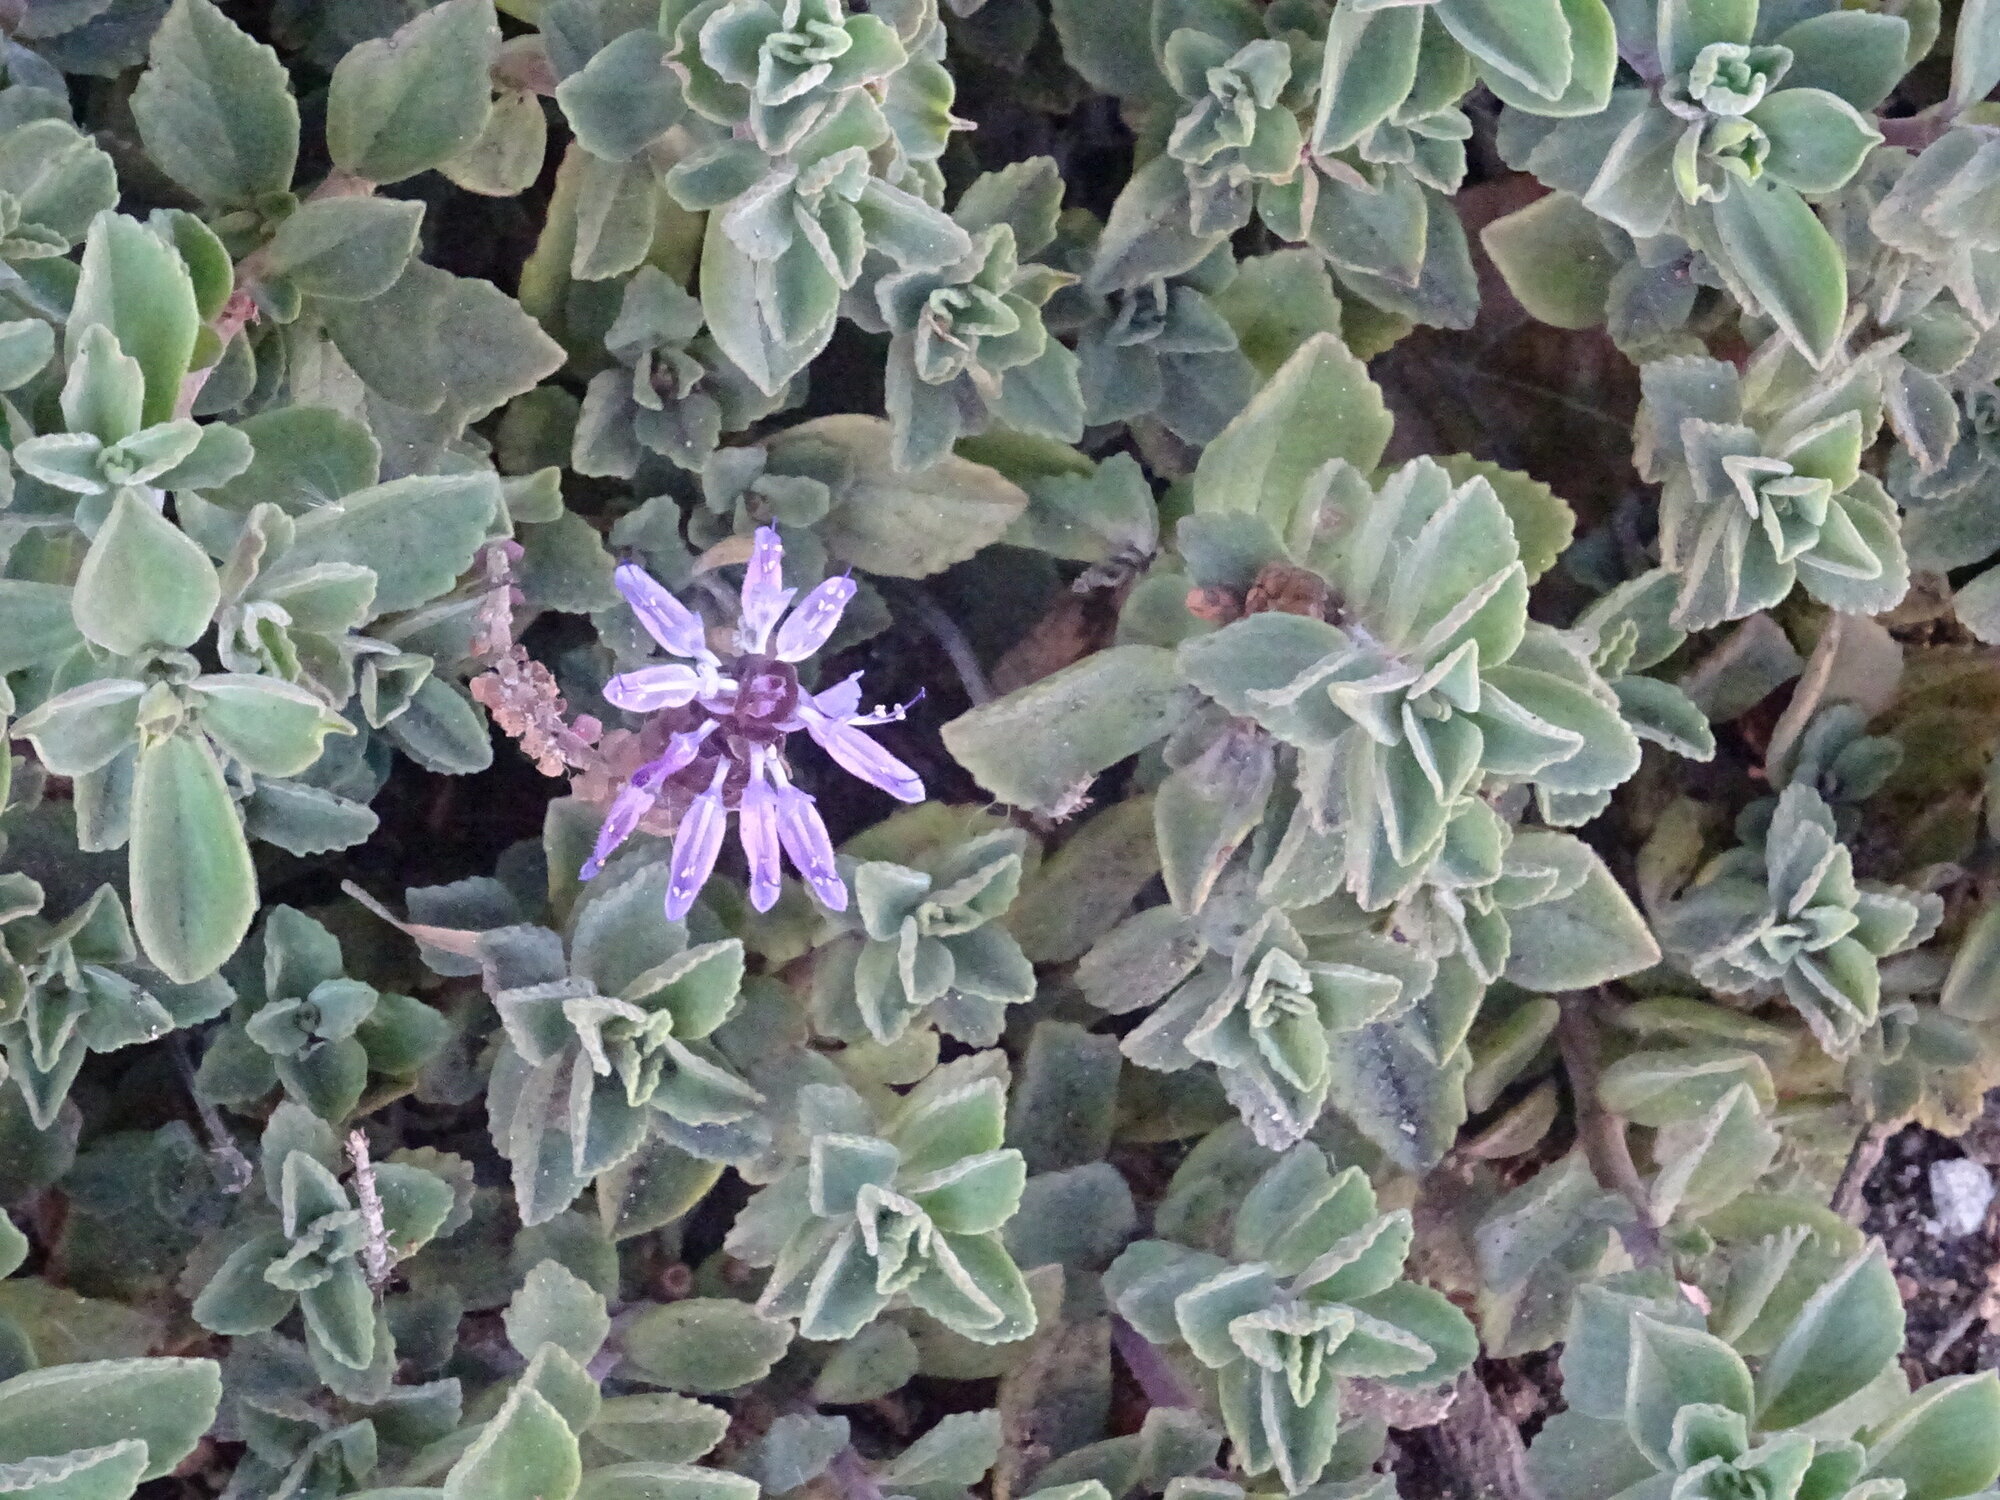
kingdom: Plantae
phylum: Tracheophyta
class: Magnoliopsida
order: Lamiales
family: Lamiaceae
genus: Coleus
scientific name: Coleus neochilus
